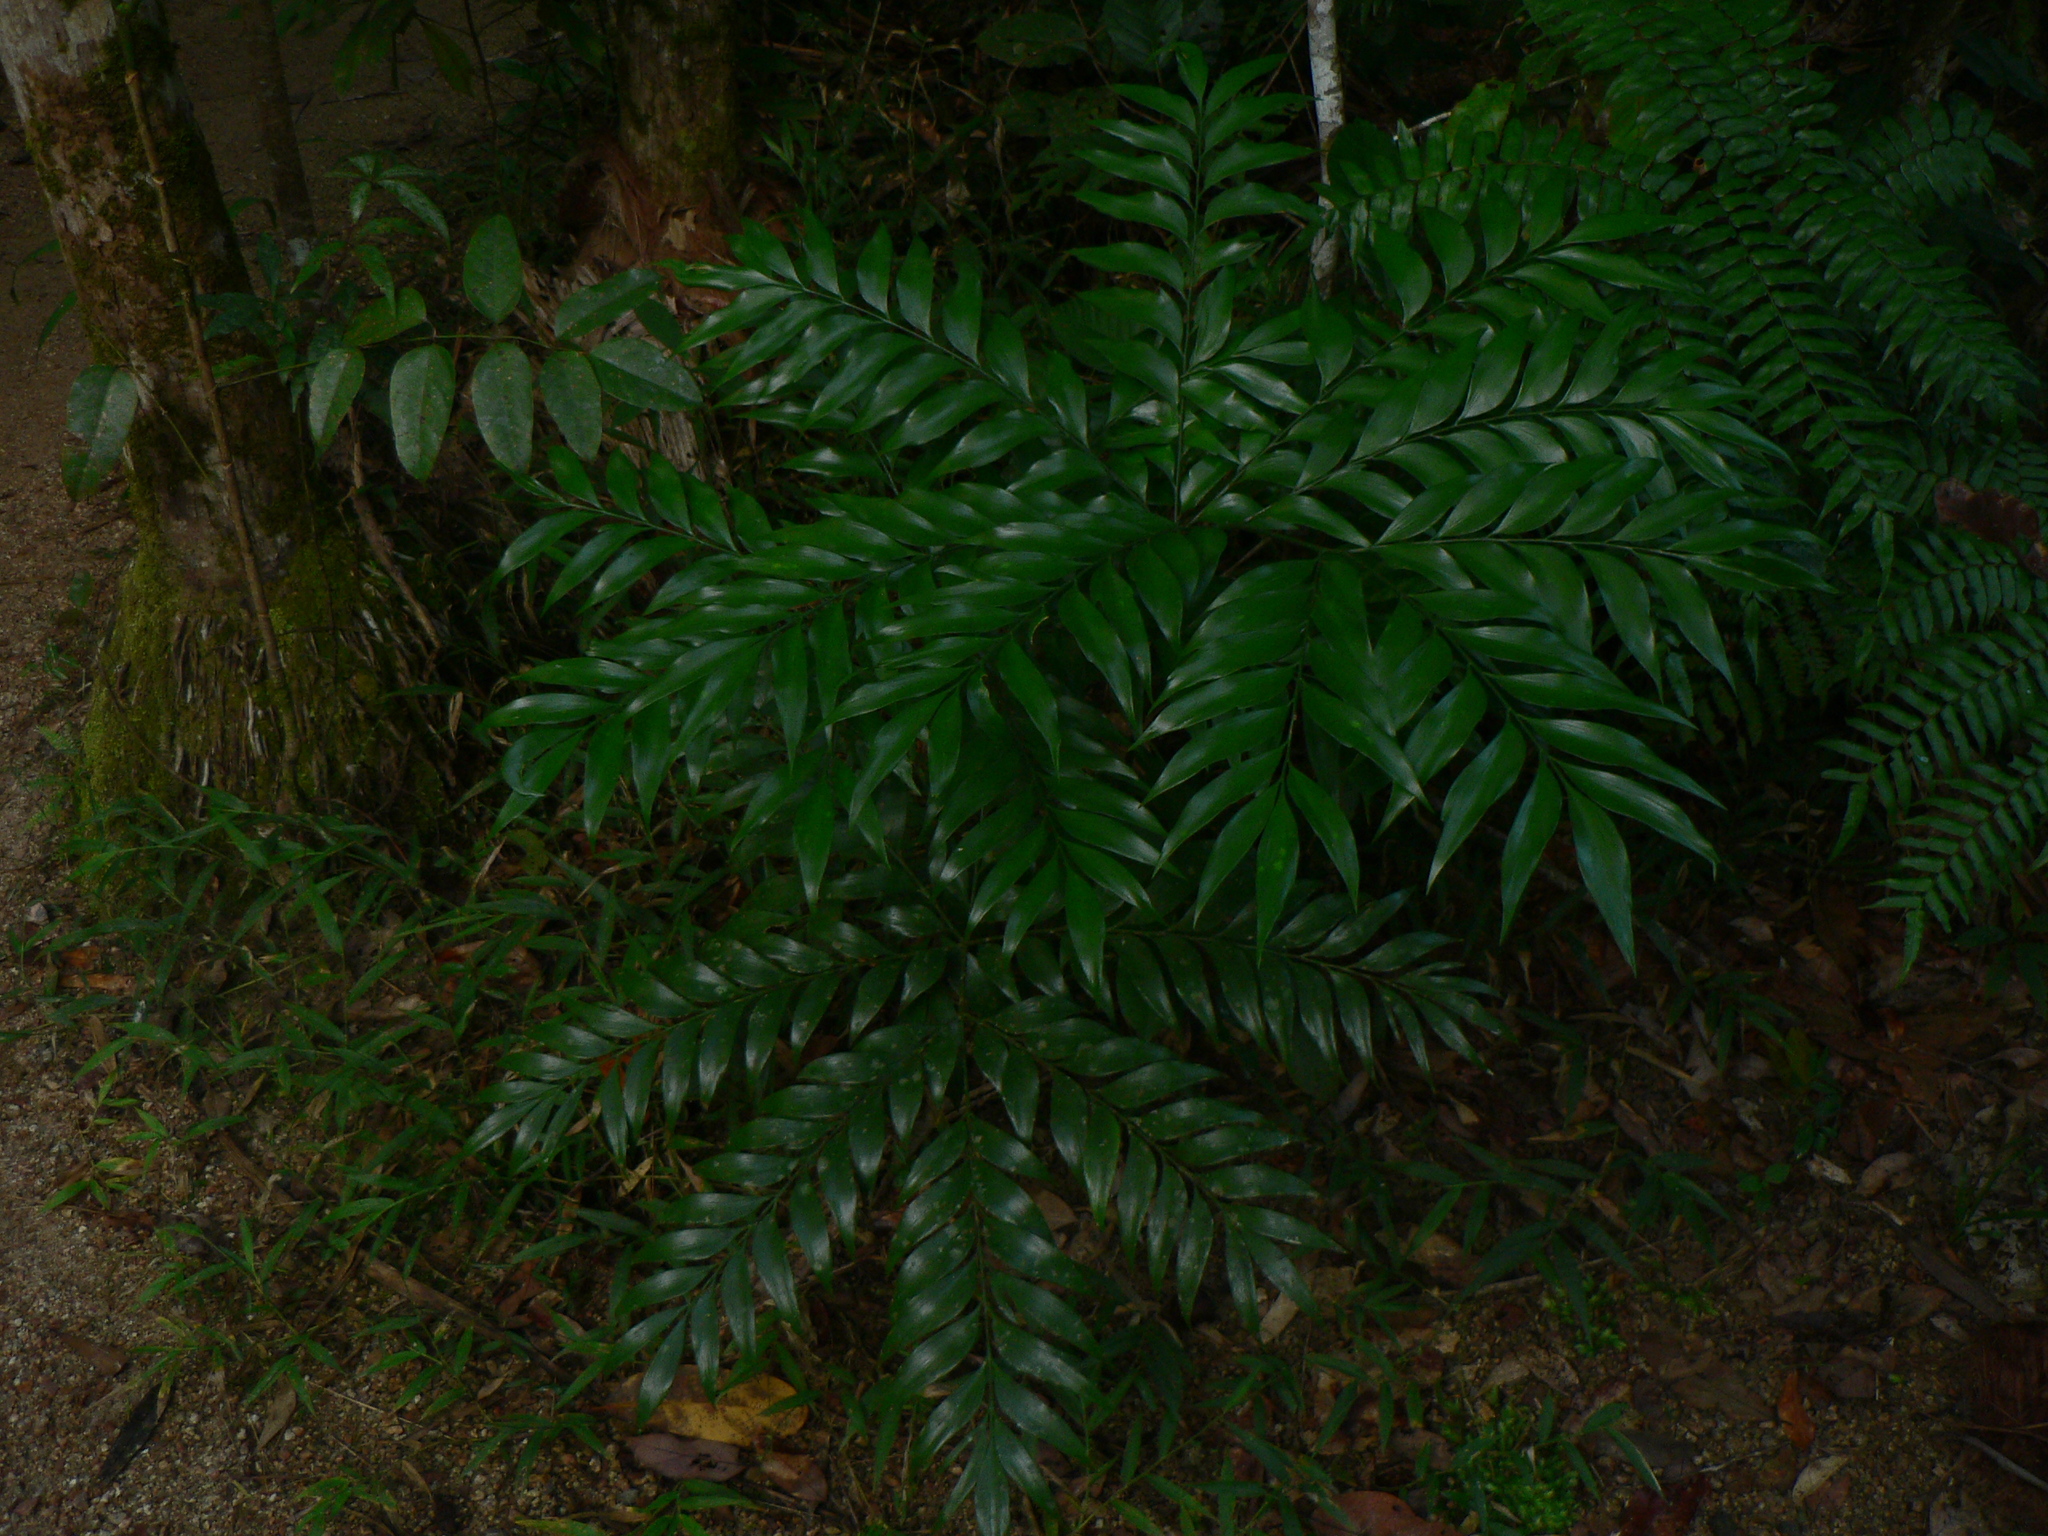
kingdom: Plantae
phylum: Tracheophyta
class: Cycadopsida
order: Cycadales
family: Zamiaceae
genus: Bowenia
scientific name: Bowenia spectabilis
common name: Zamia-fern
